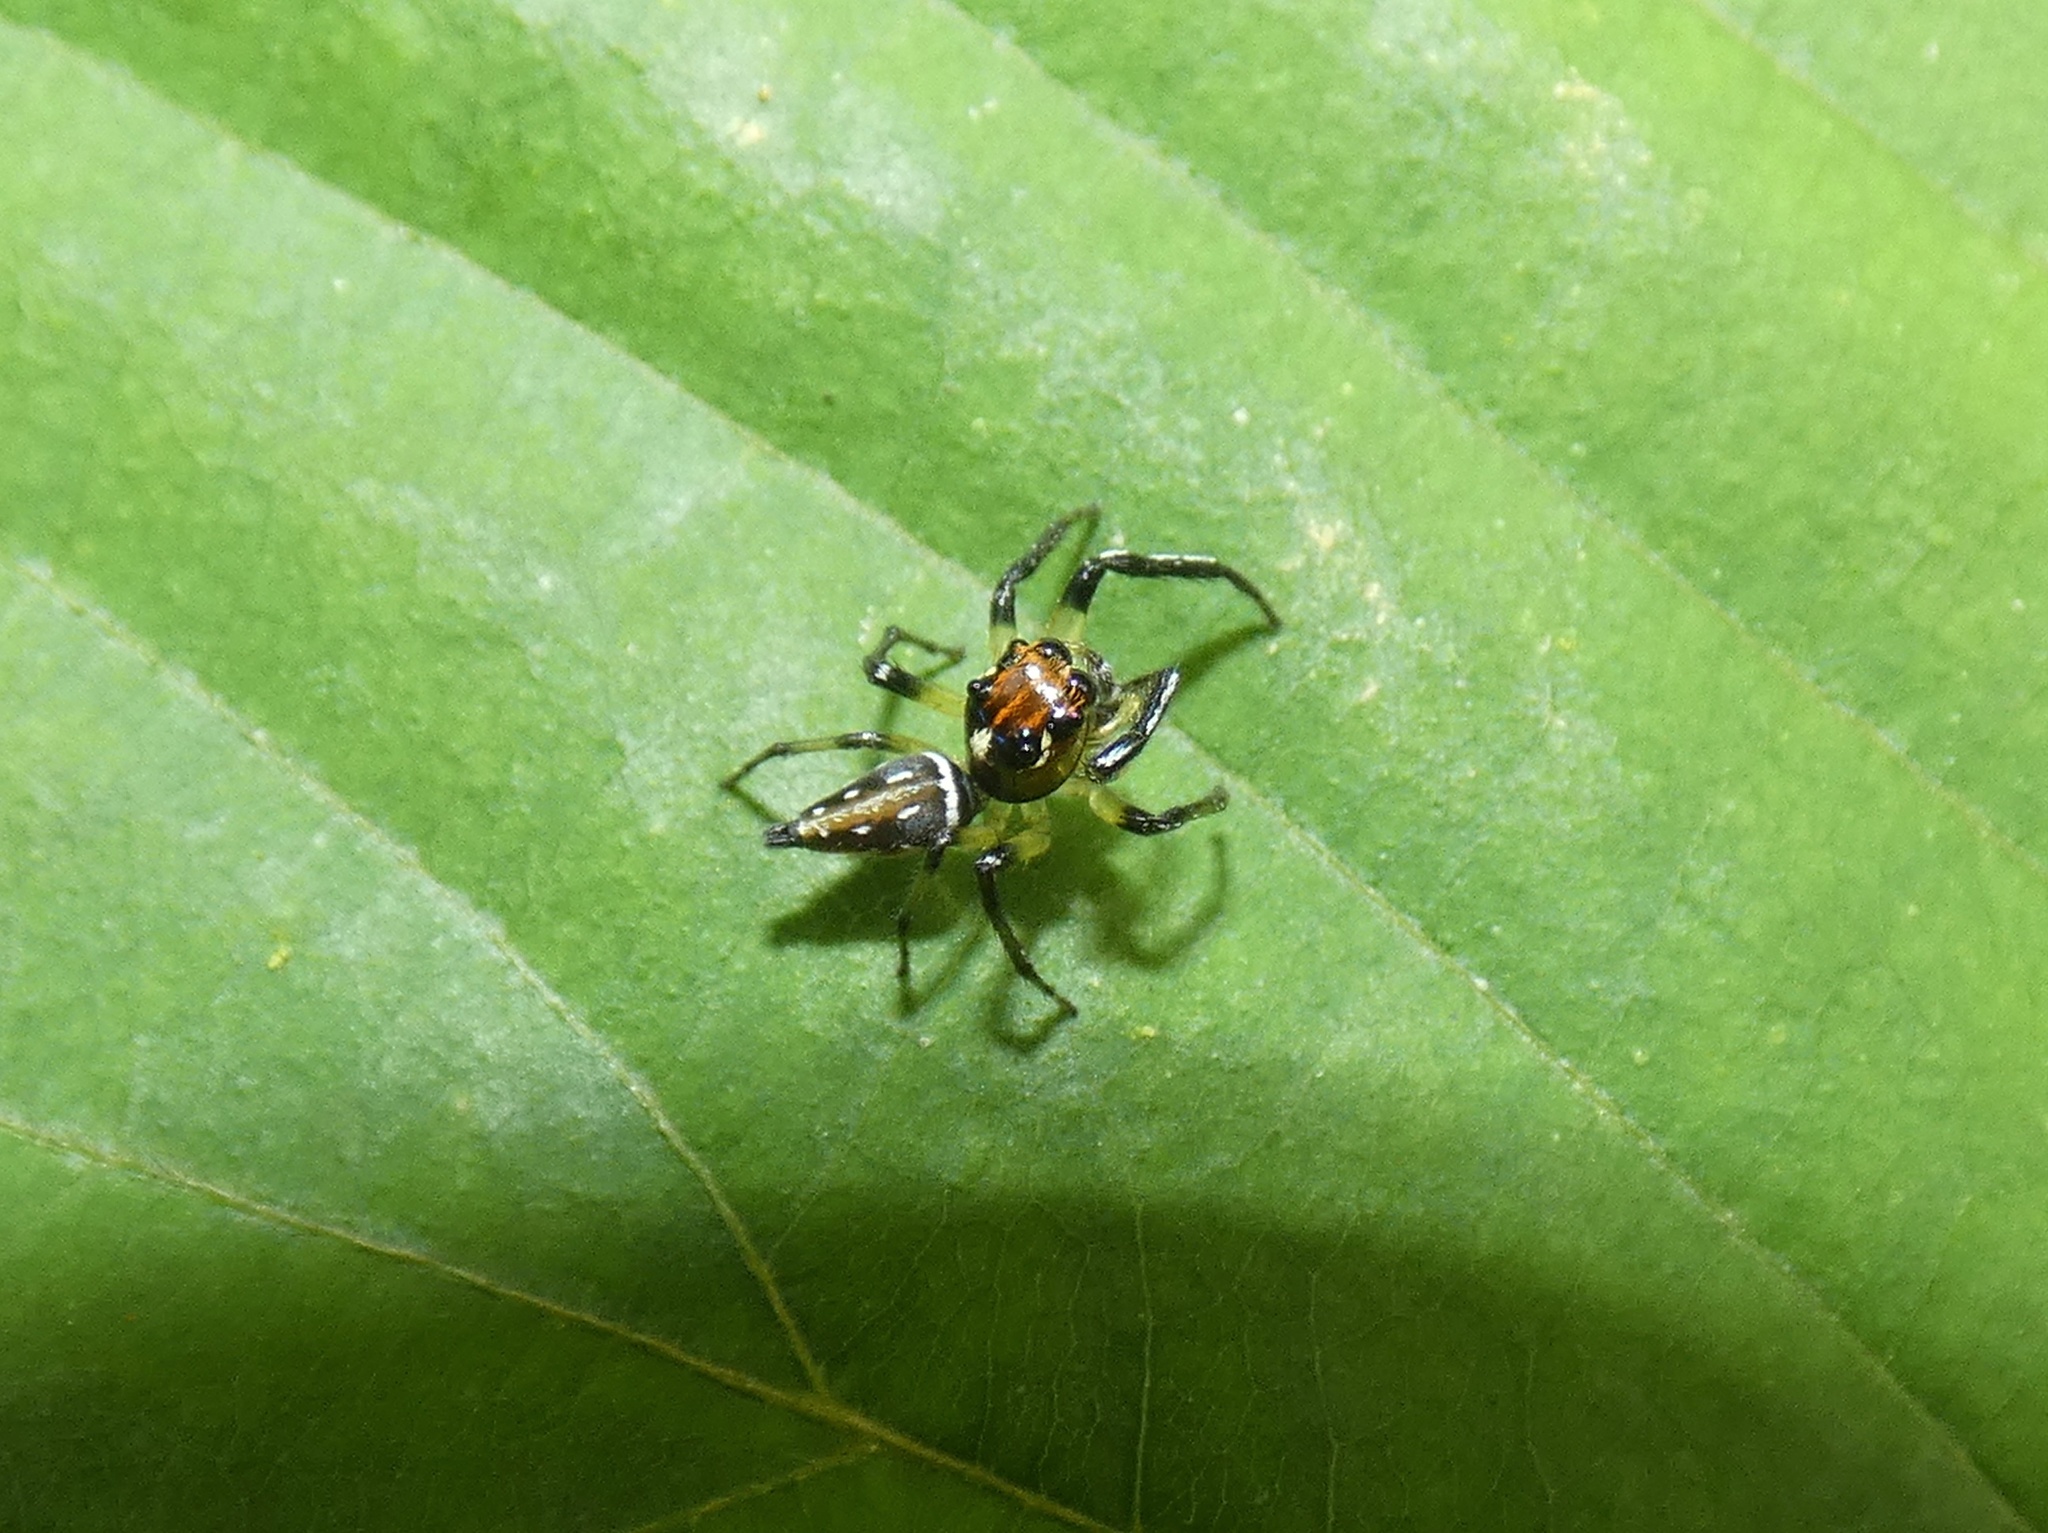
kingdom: Animalia
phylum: Arthropoda
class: Arachnida
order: Araneae
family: Salticidae
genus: Hypaeus
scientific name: Hypaeus benignus
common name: Jumping spiders
